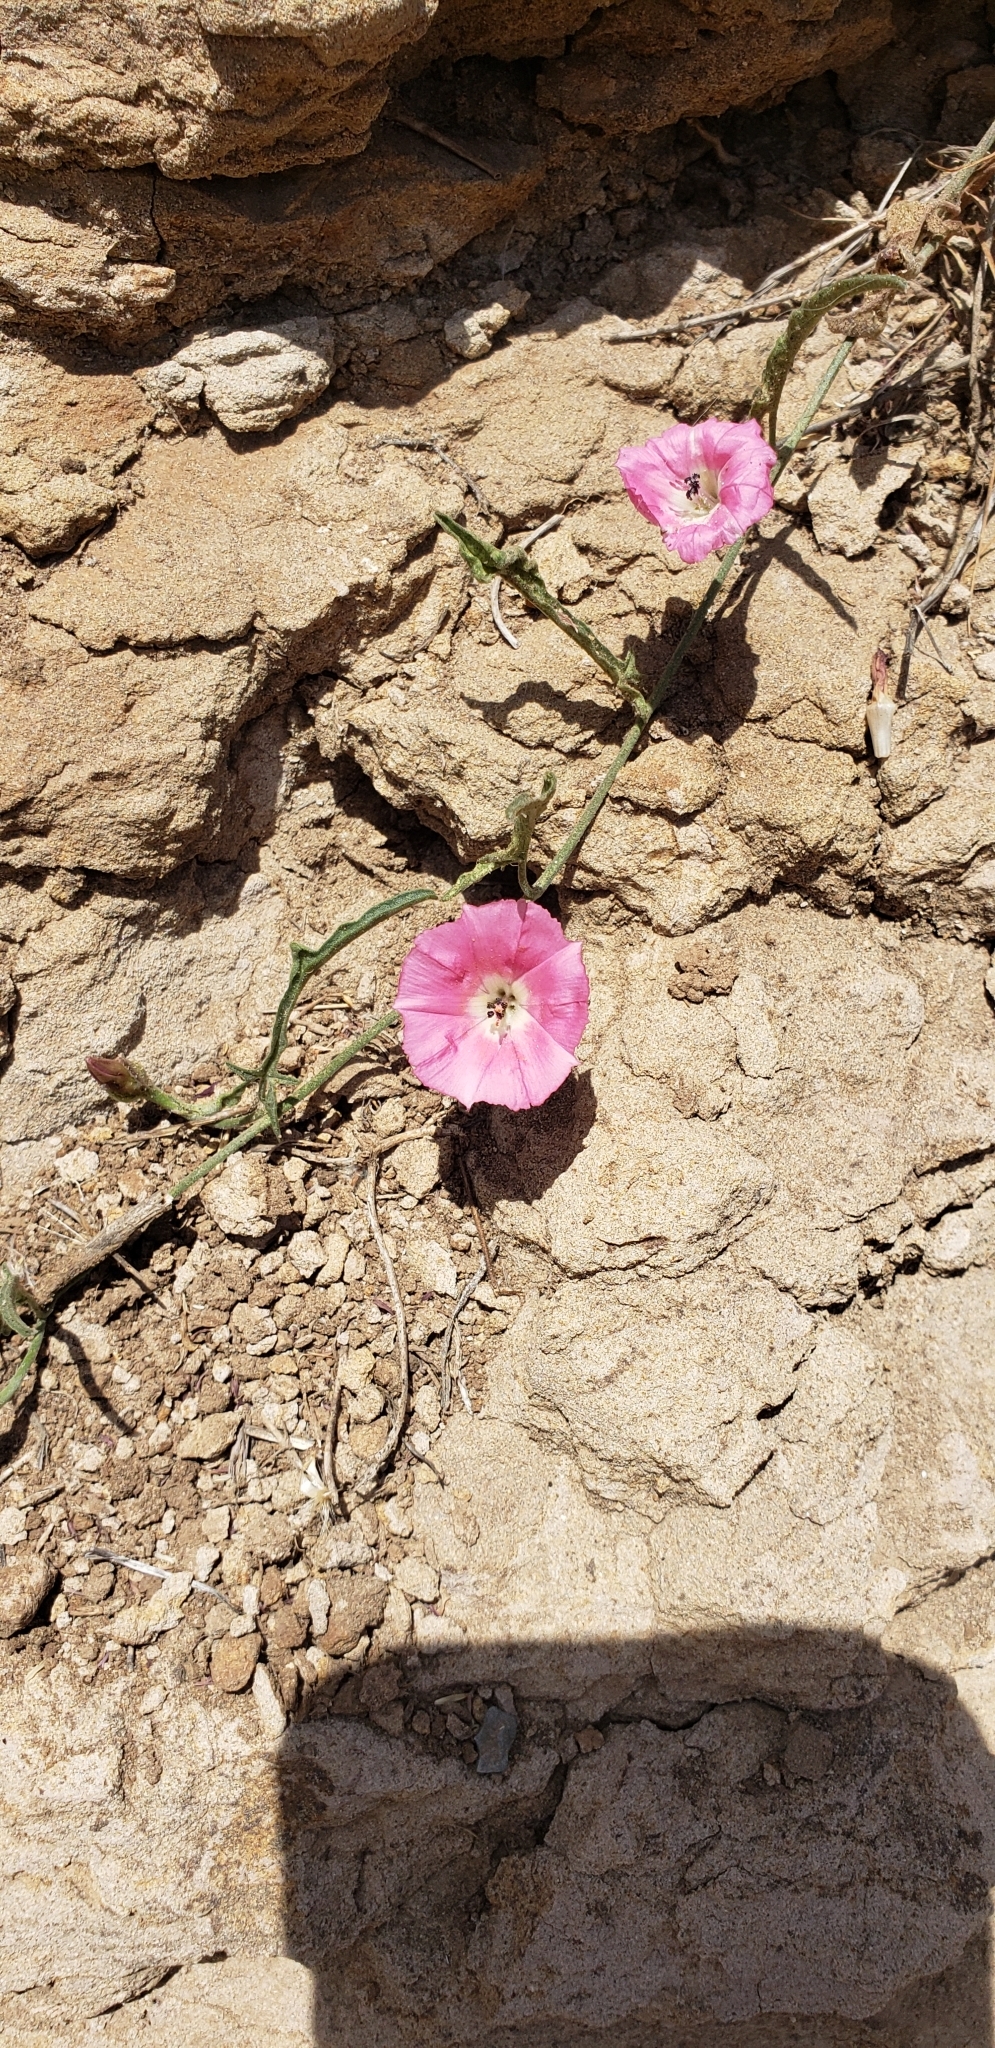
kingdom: Plantae
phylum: Tracheophyta
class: Magnoliopsida
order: Solanales
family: Convolvulaceae
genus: Convolvulus
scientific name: Convolvulus chilensis
